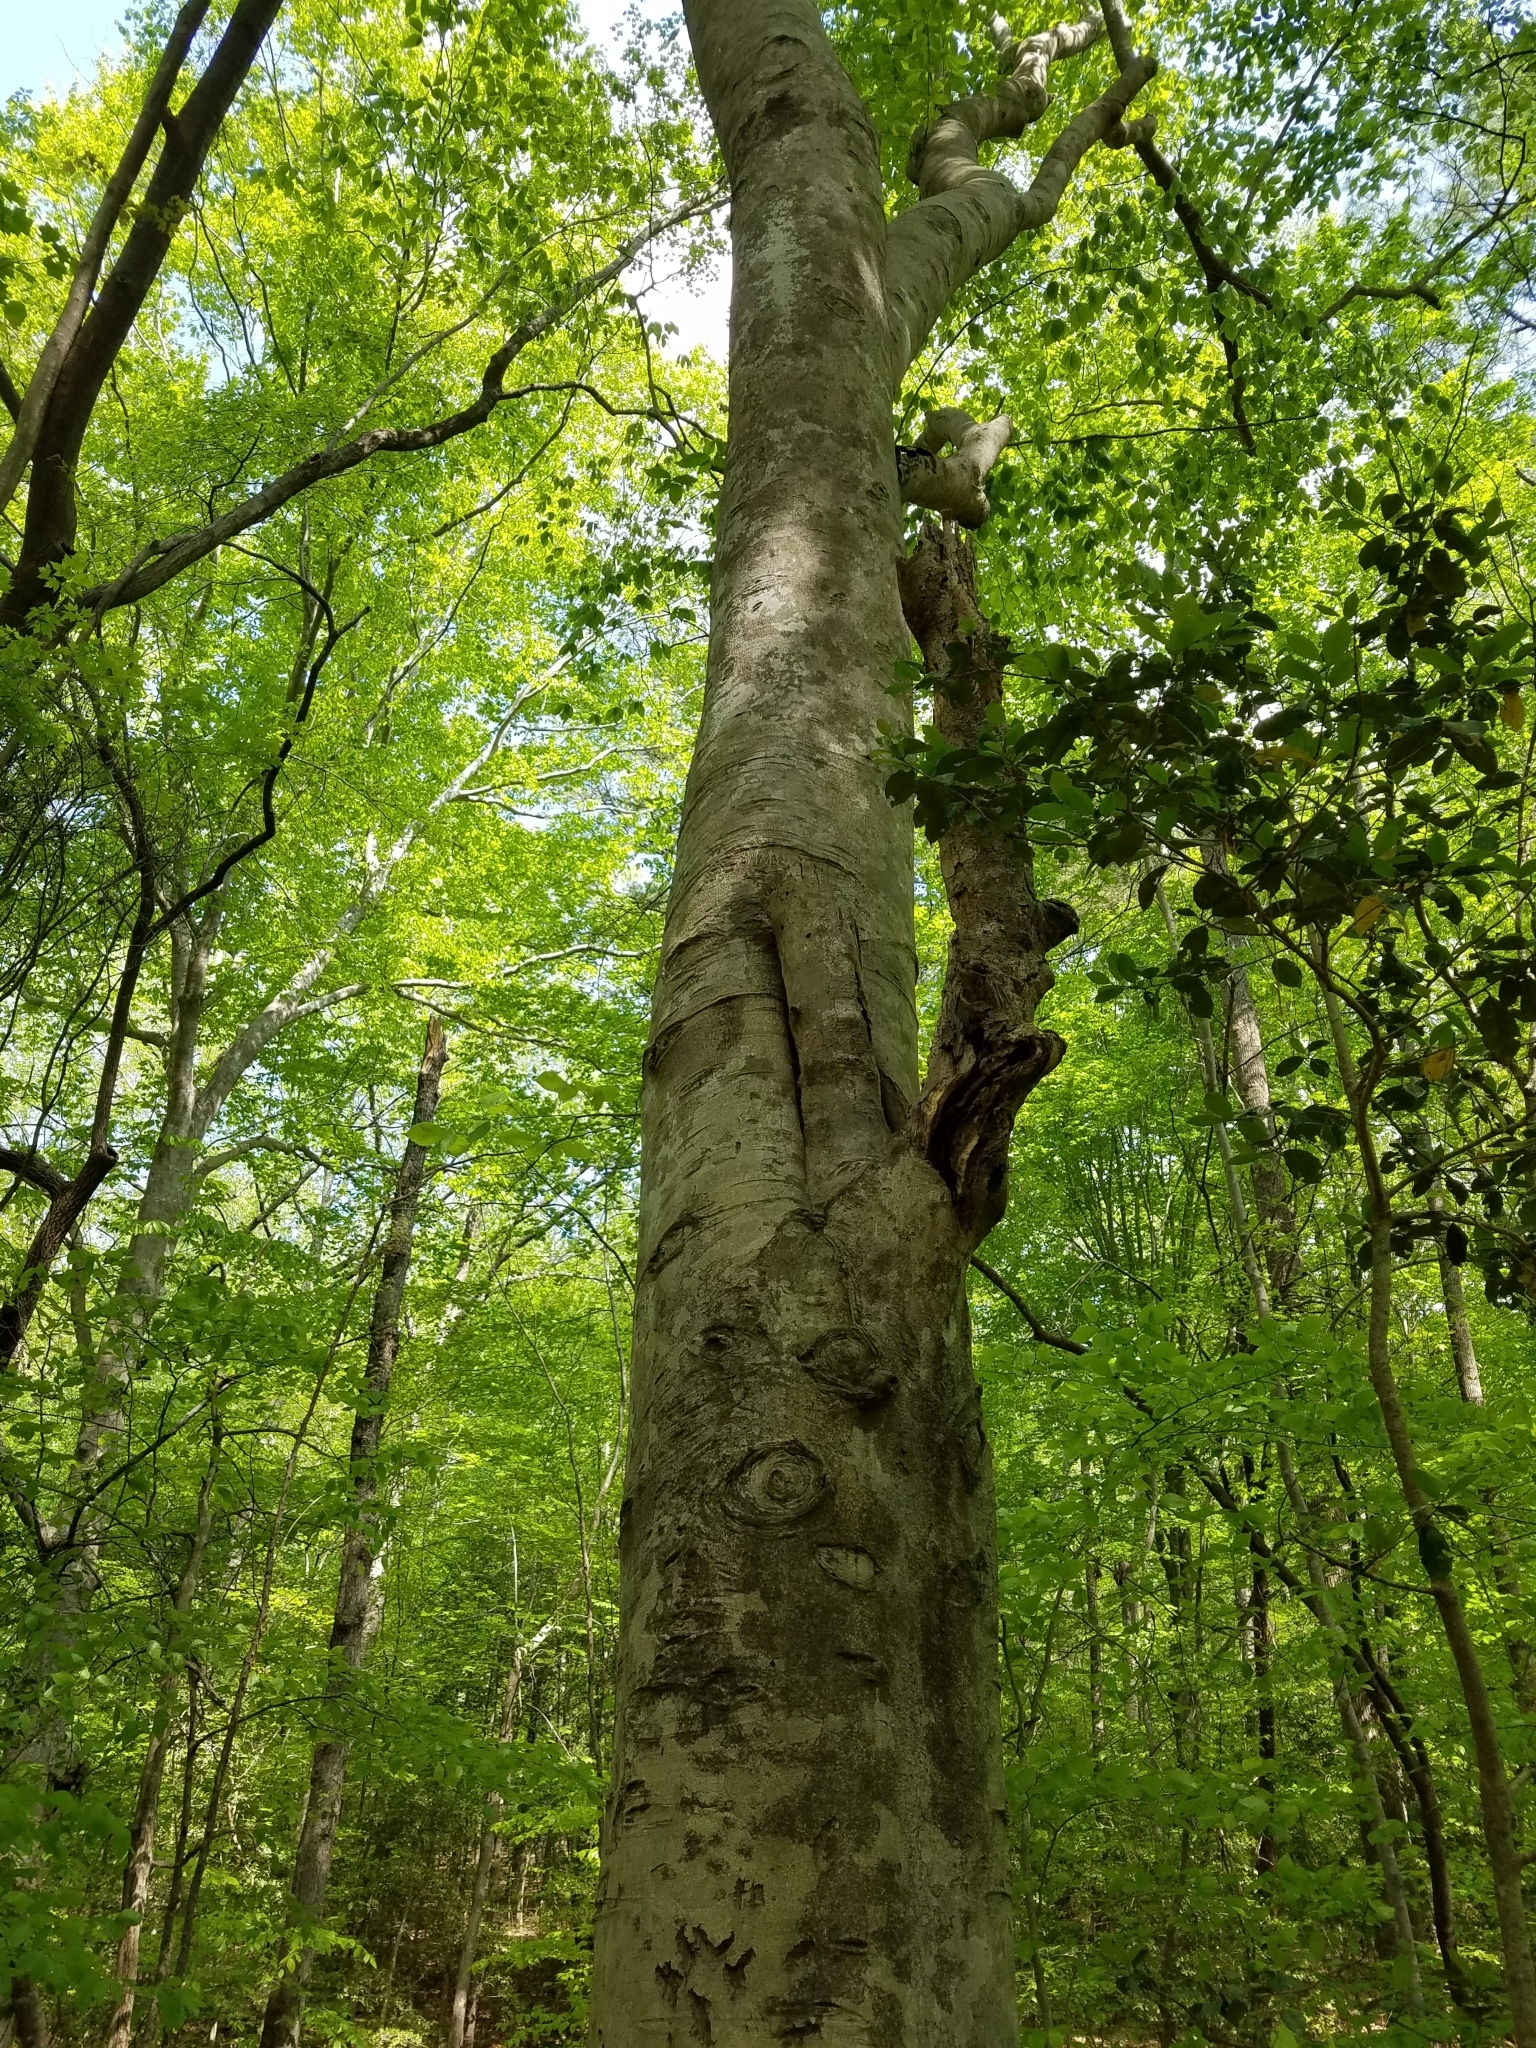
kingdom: Plantae
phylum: Tracheophyta
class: Magnoliopsida
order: Fagales
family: Fagaceae
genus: Fagus
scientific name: Fagus grandifolia
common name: American beech
